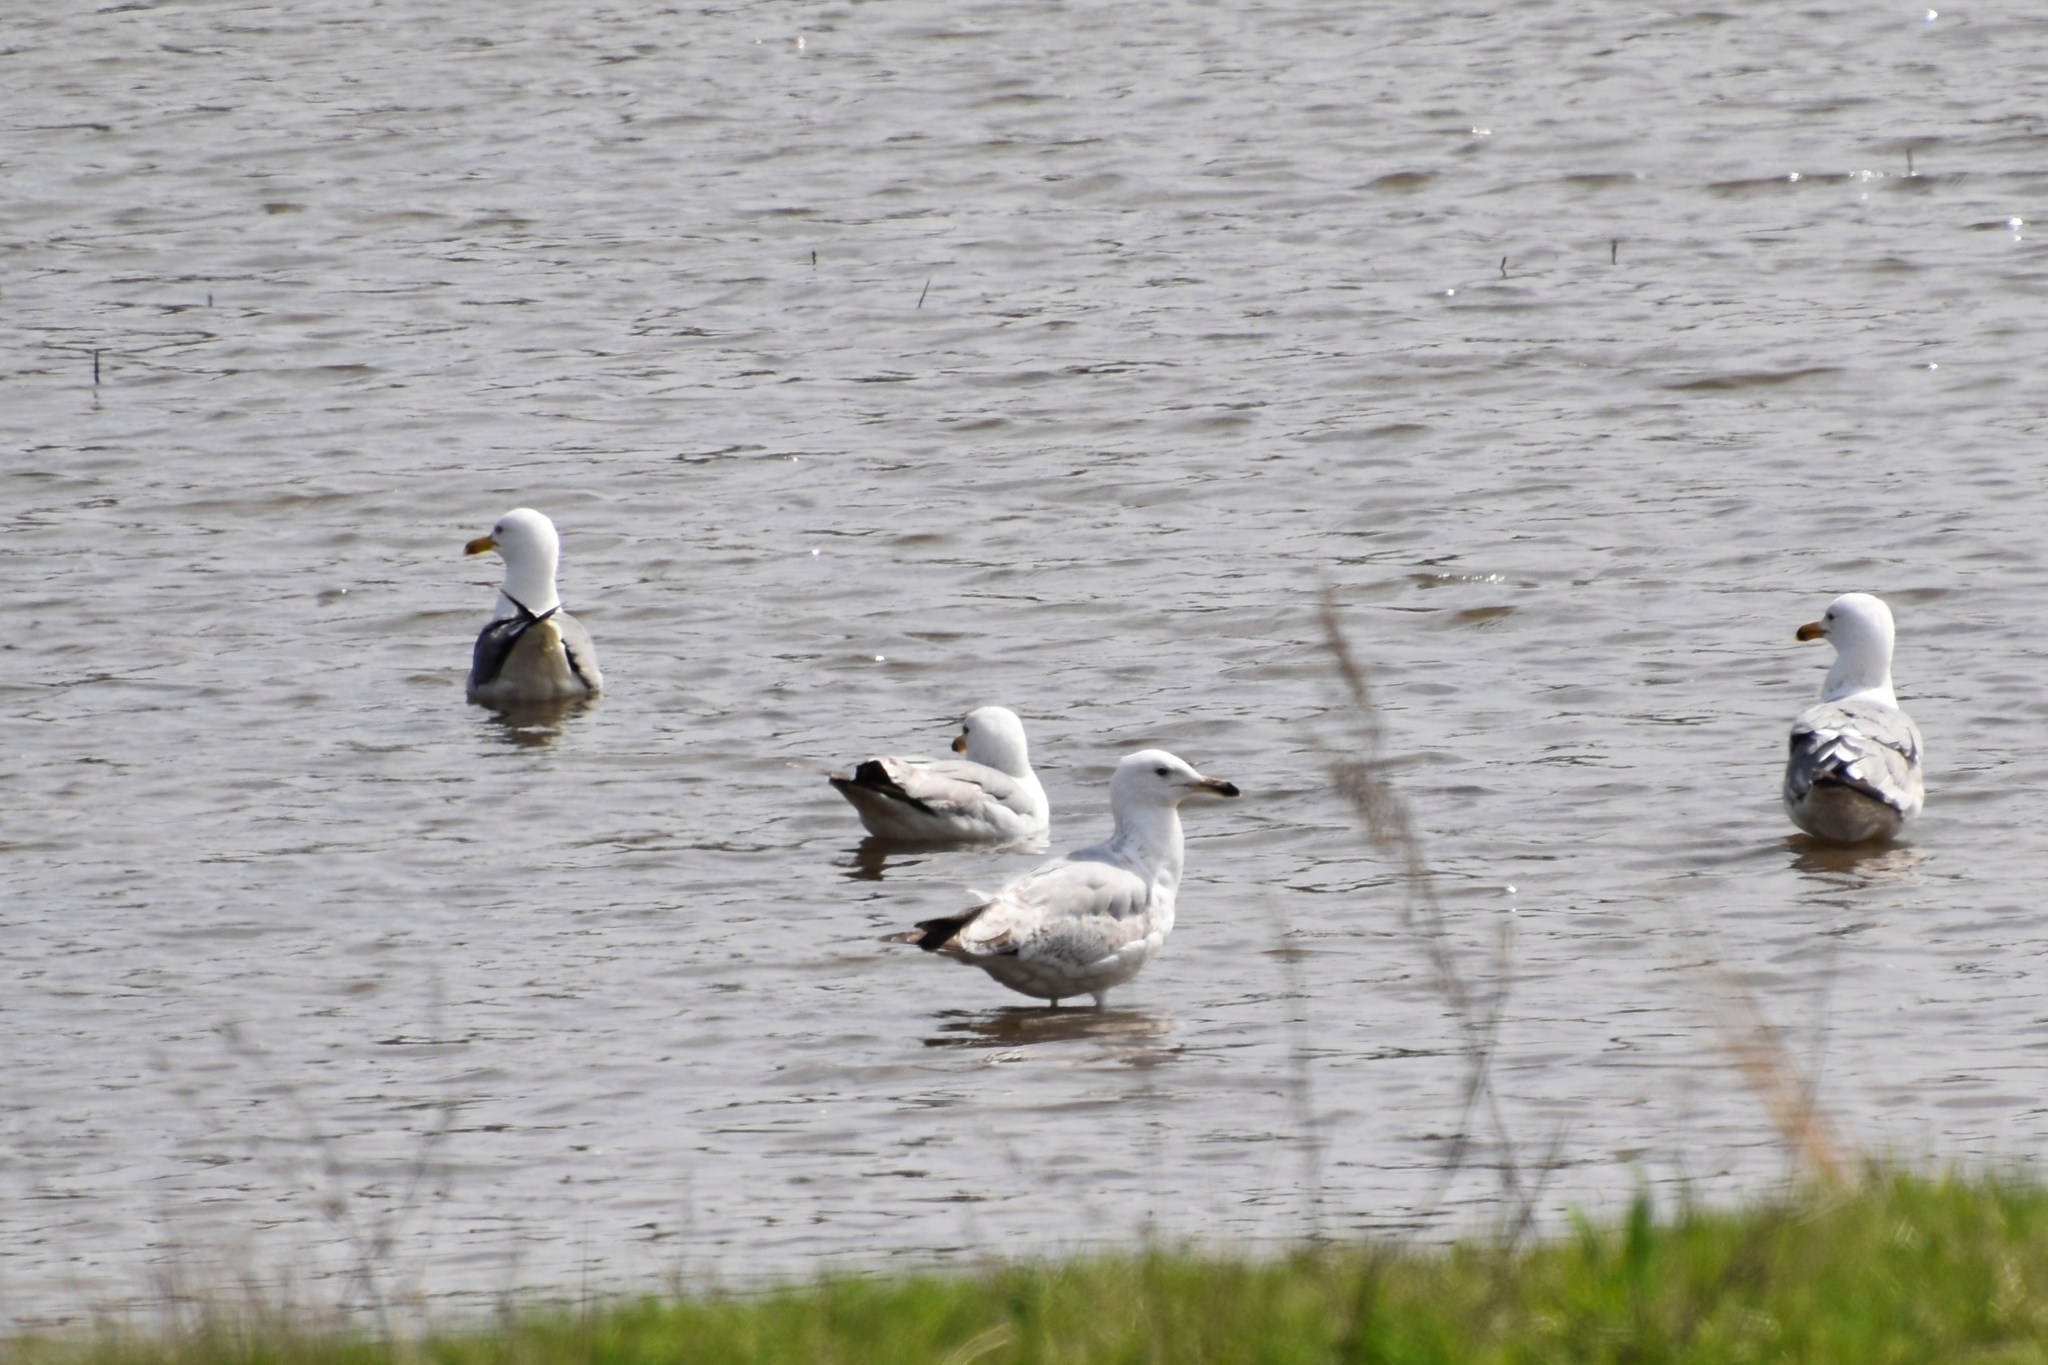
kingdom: Animalia
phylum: Chordata
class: Aves
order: Charadriiformes
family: Laridae
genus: Larus
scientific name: Larus cachinnans
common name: Caspian gull
